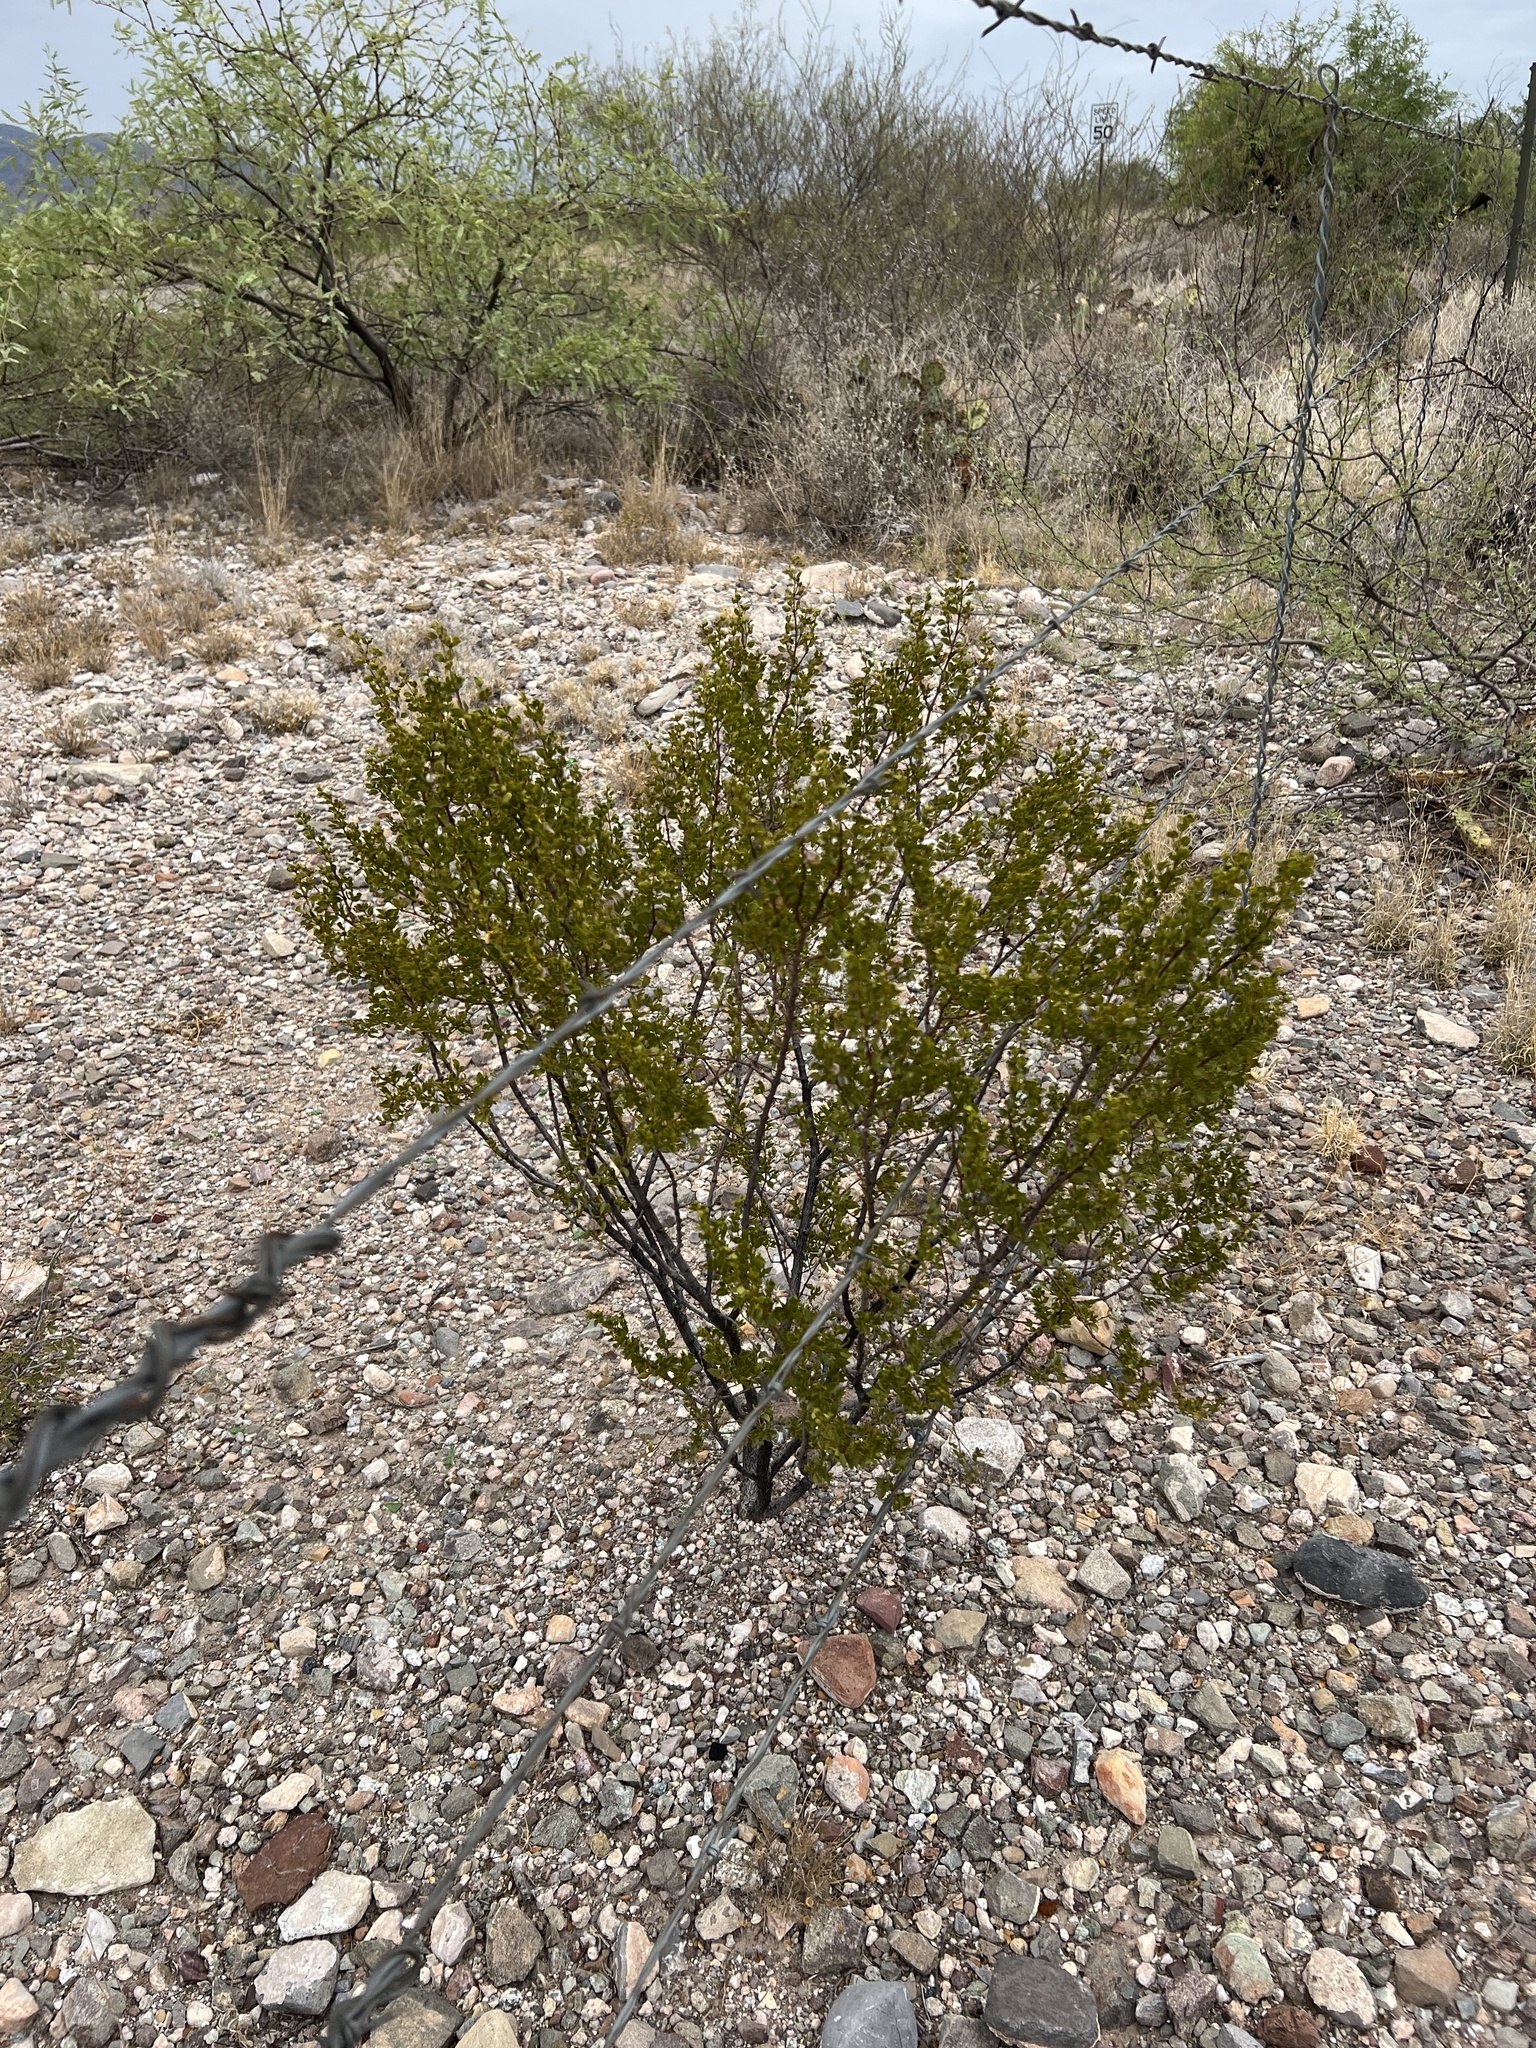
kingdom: Plantae
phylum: Tracheophyta
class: Magnoliopsida
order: Zygophyllales
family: Zygophyllaceae
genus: Larrea
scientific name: Larrea tridentata
